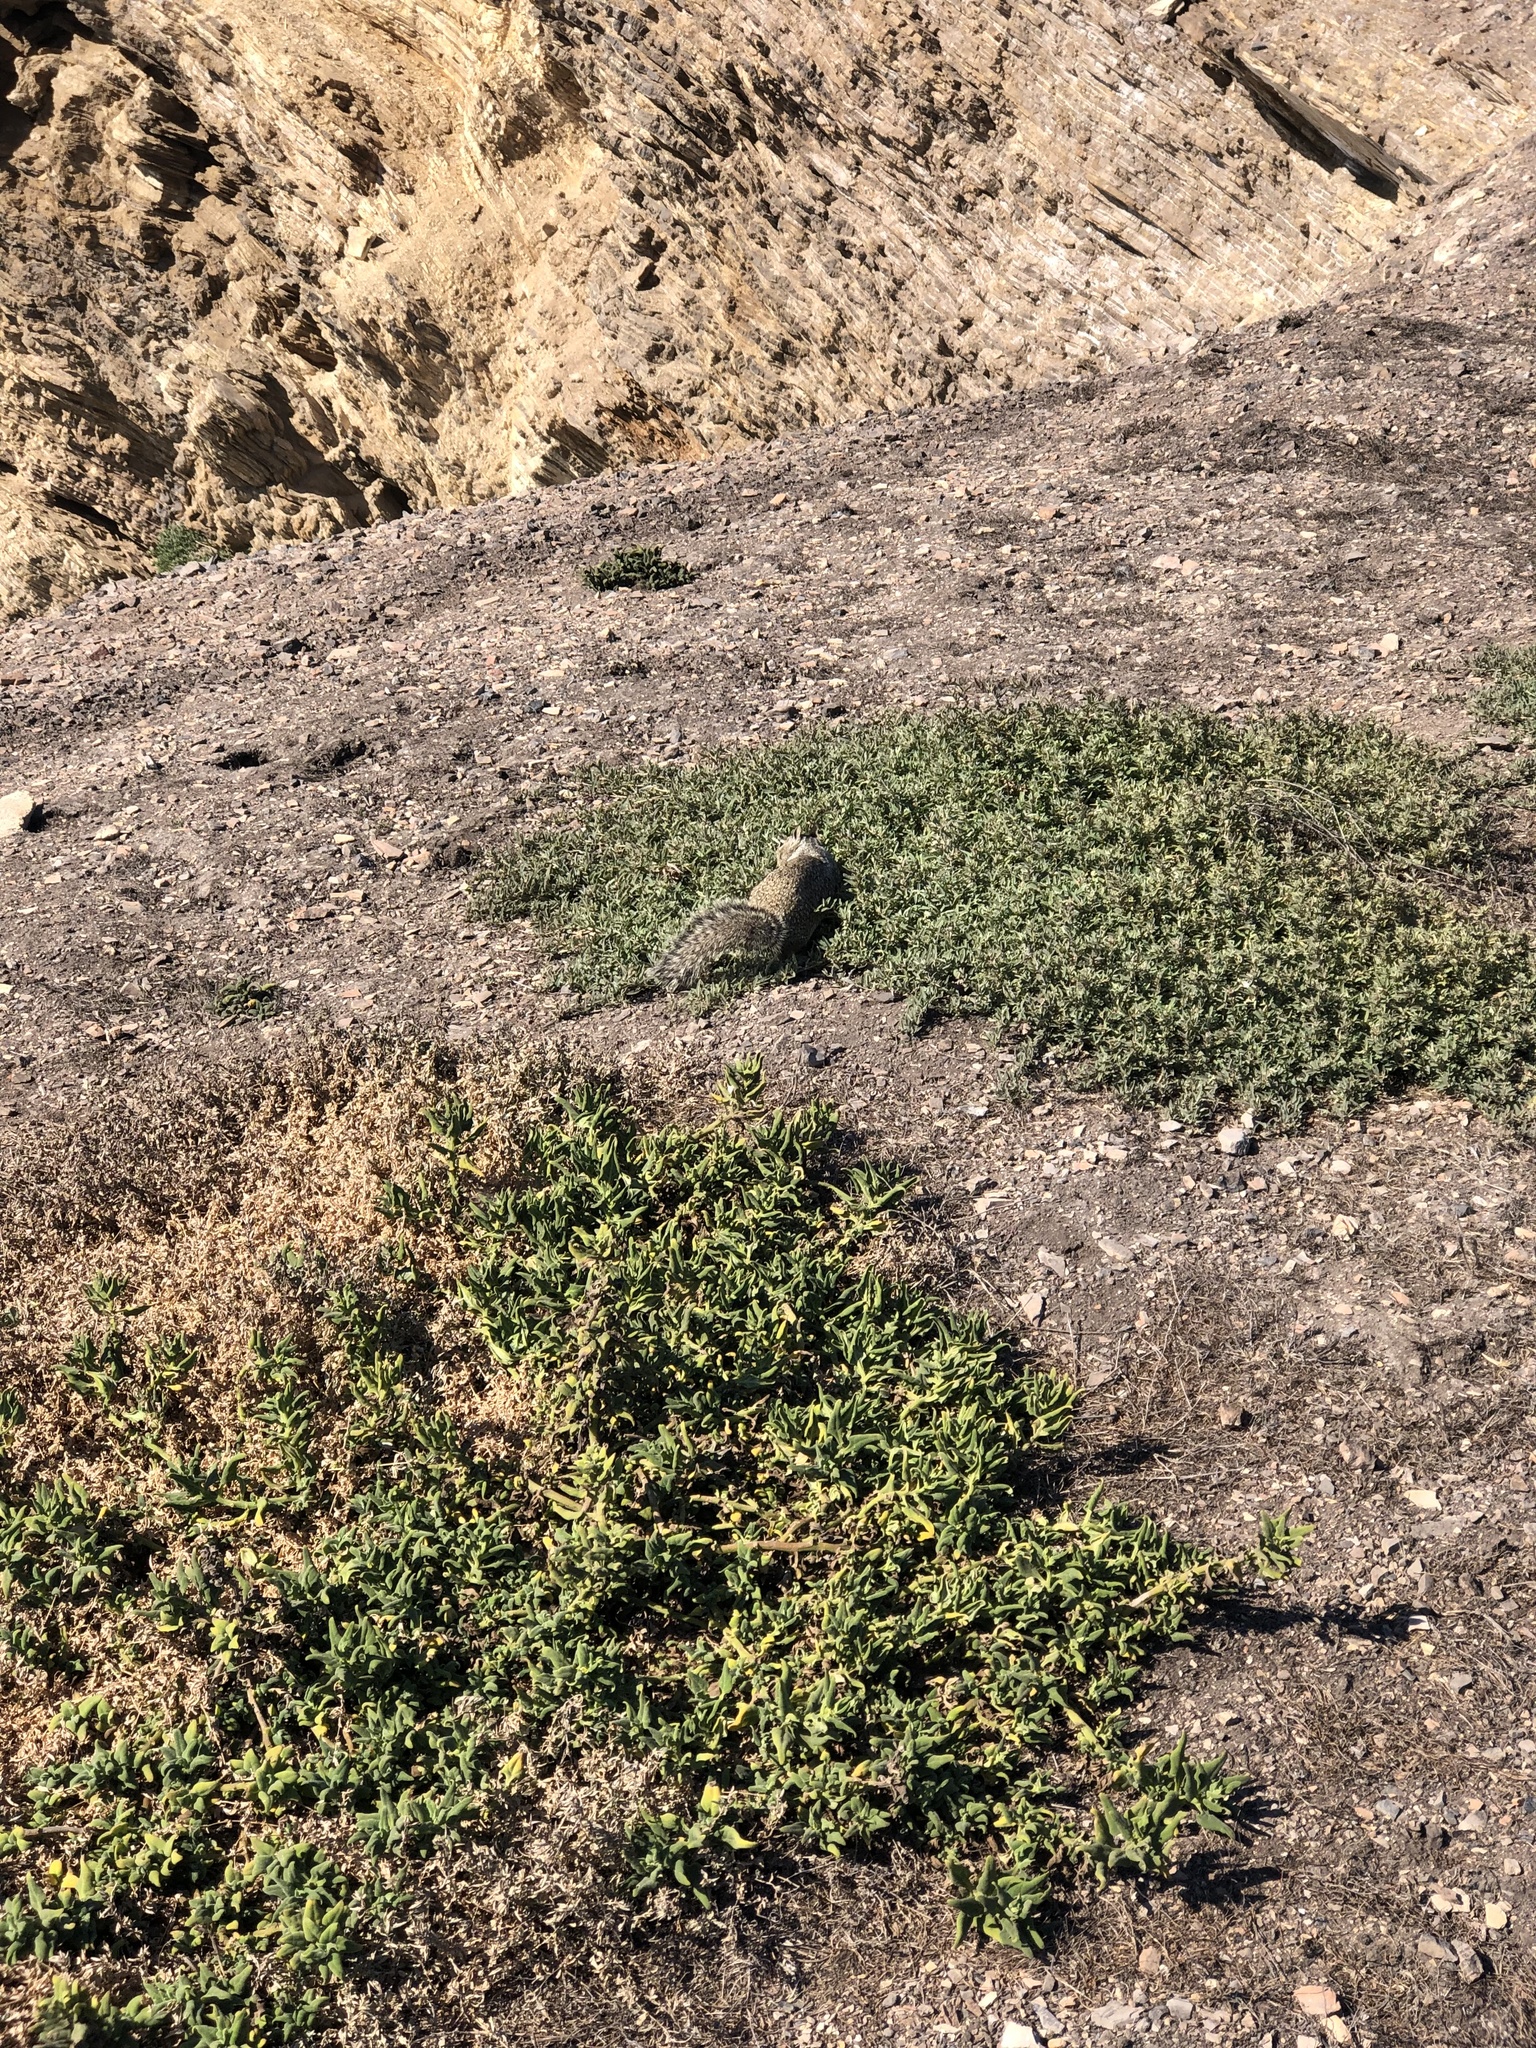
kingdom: Animalia
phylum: Chordata
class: Mammalia
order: Rodentia
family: Sciuridae
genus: Otospermophilus
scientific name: Otospermophilus beecheyi
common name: California ground squirrel
